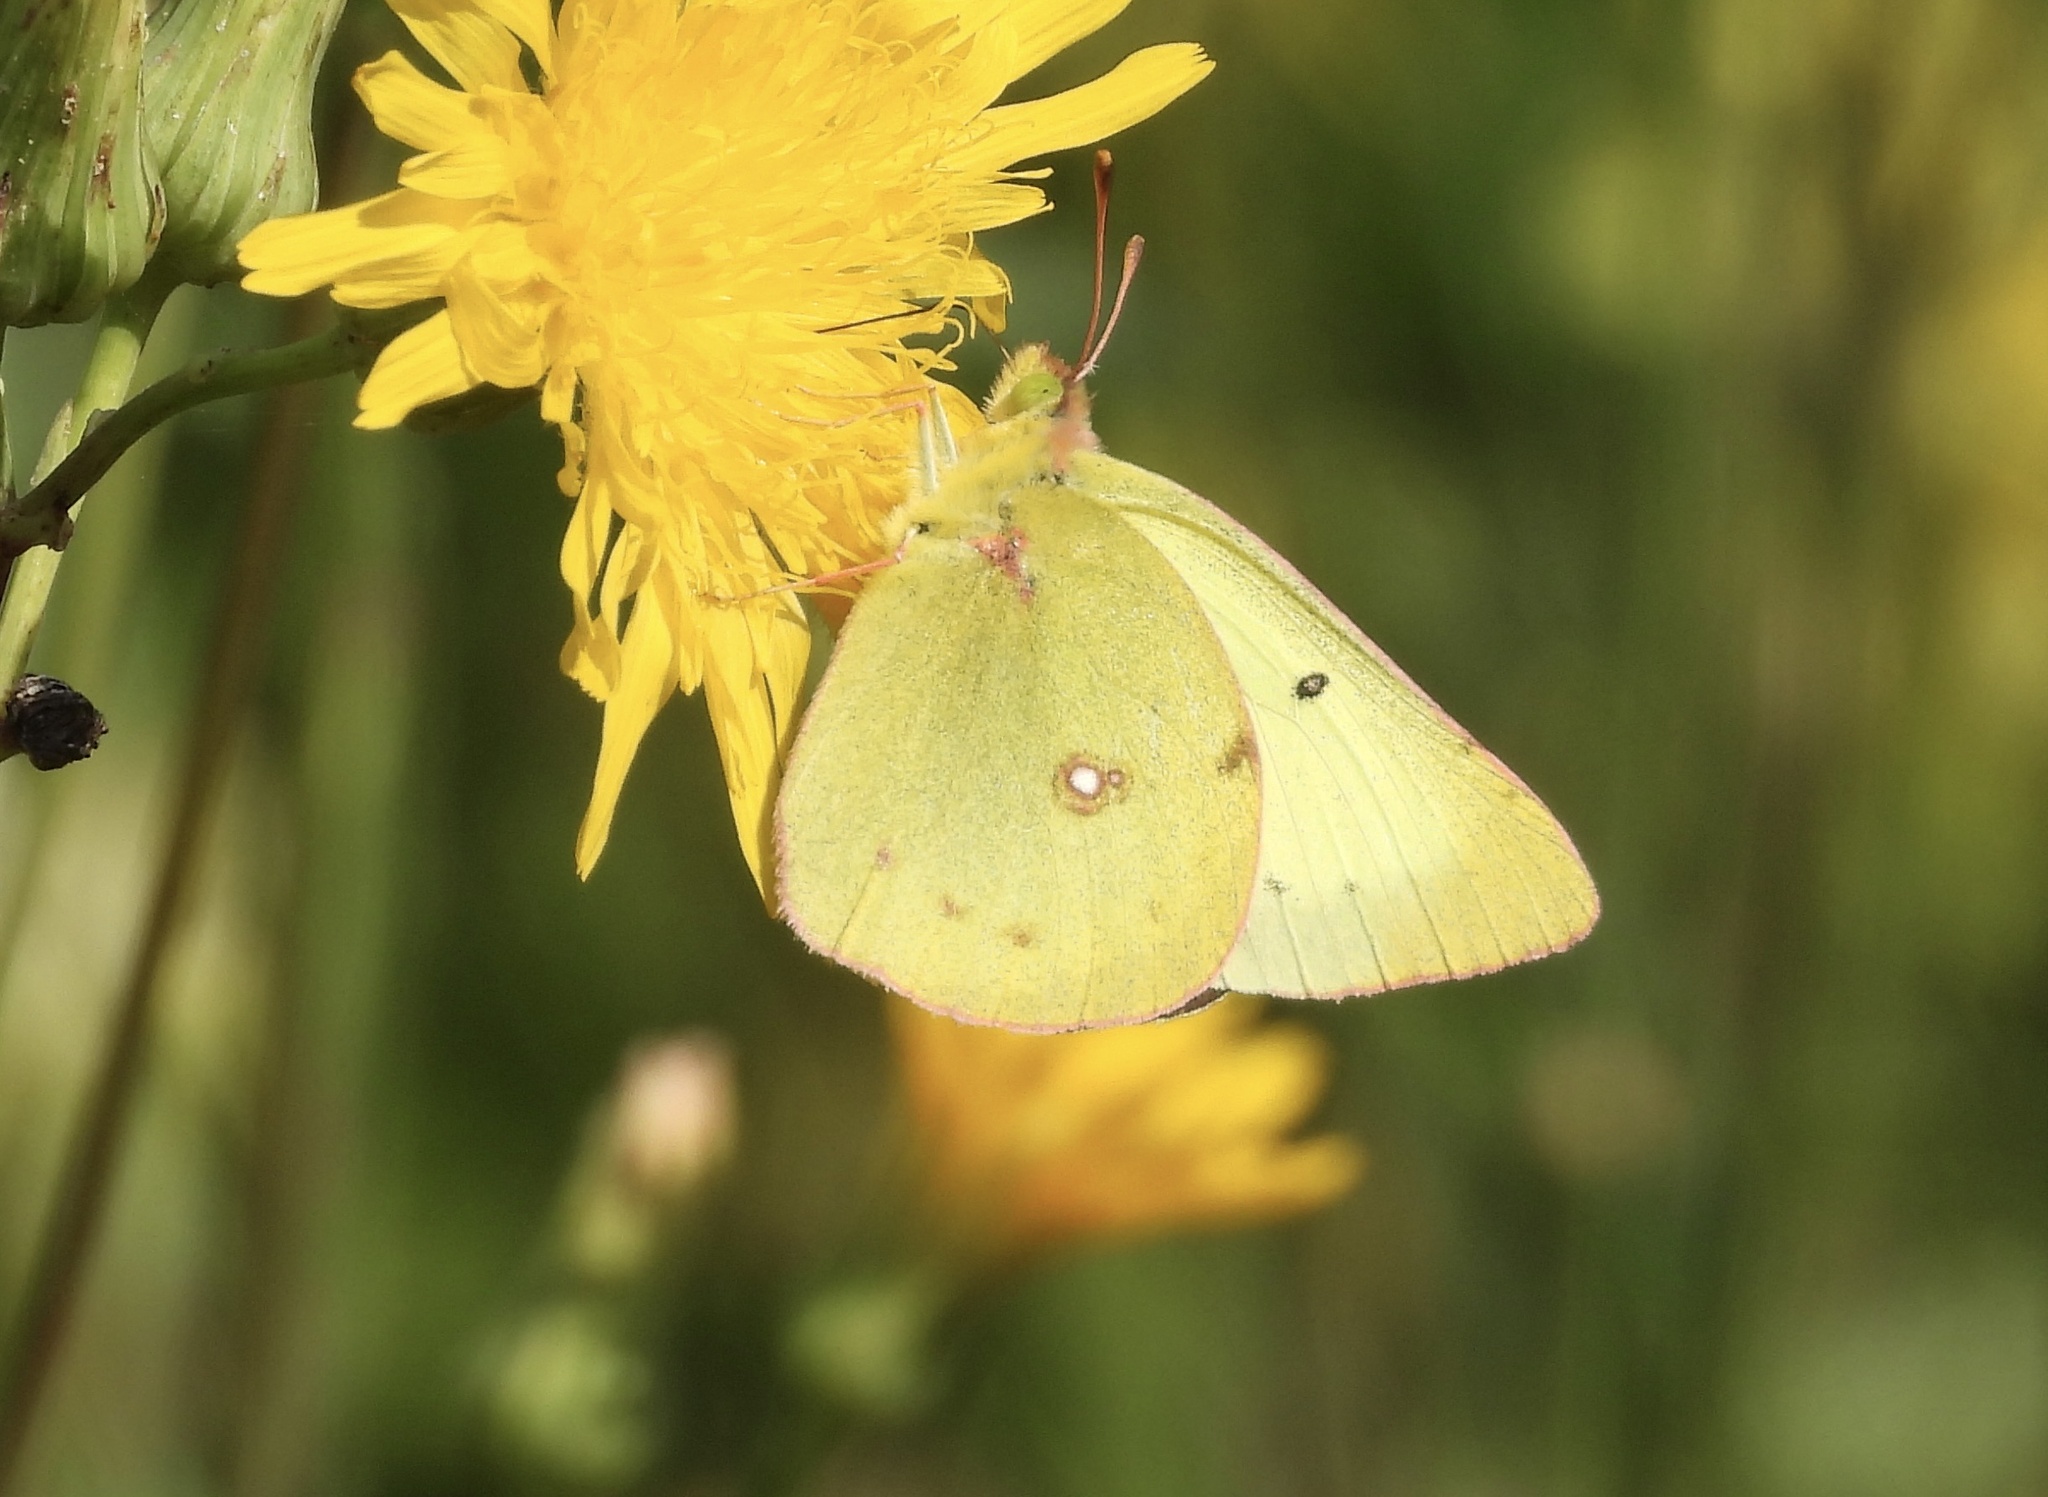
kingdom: Animalia
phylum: Arthropoda
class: Insecta
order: Lepidoptera
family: Pieridae
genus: Colias
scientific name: Colias philodice
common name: Clouded sulphur
